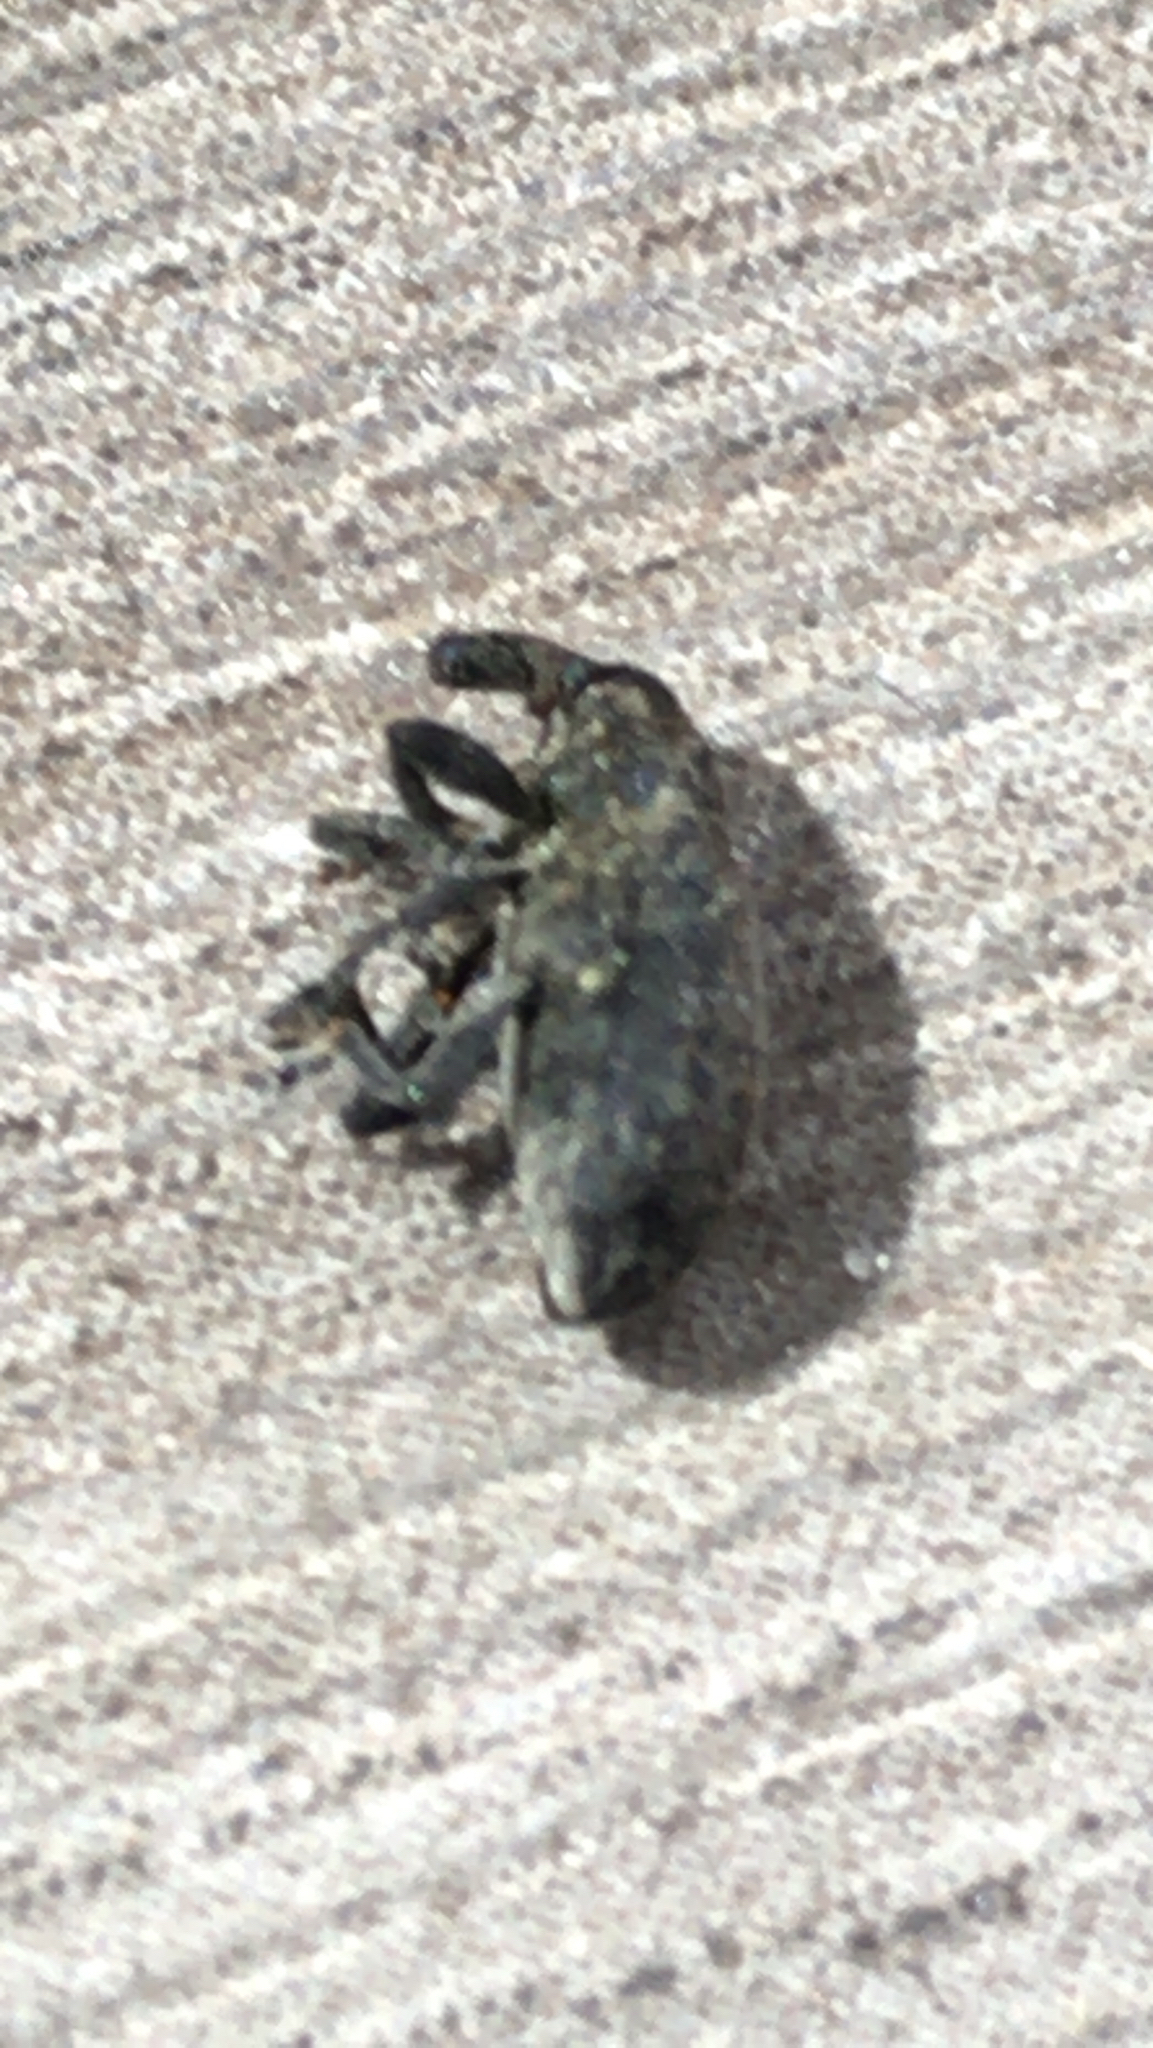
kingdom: Animalia
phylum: Arthropoda
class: Insecta
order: Coleoptera
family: Curculionidae
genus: Larinus
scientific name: Larinus carlinae
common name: Weevil
